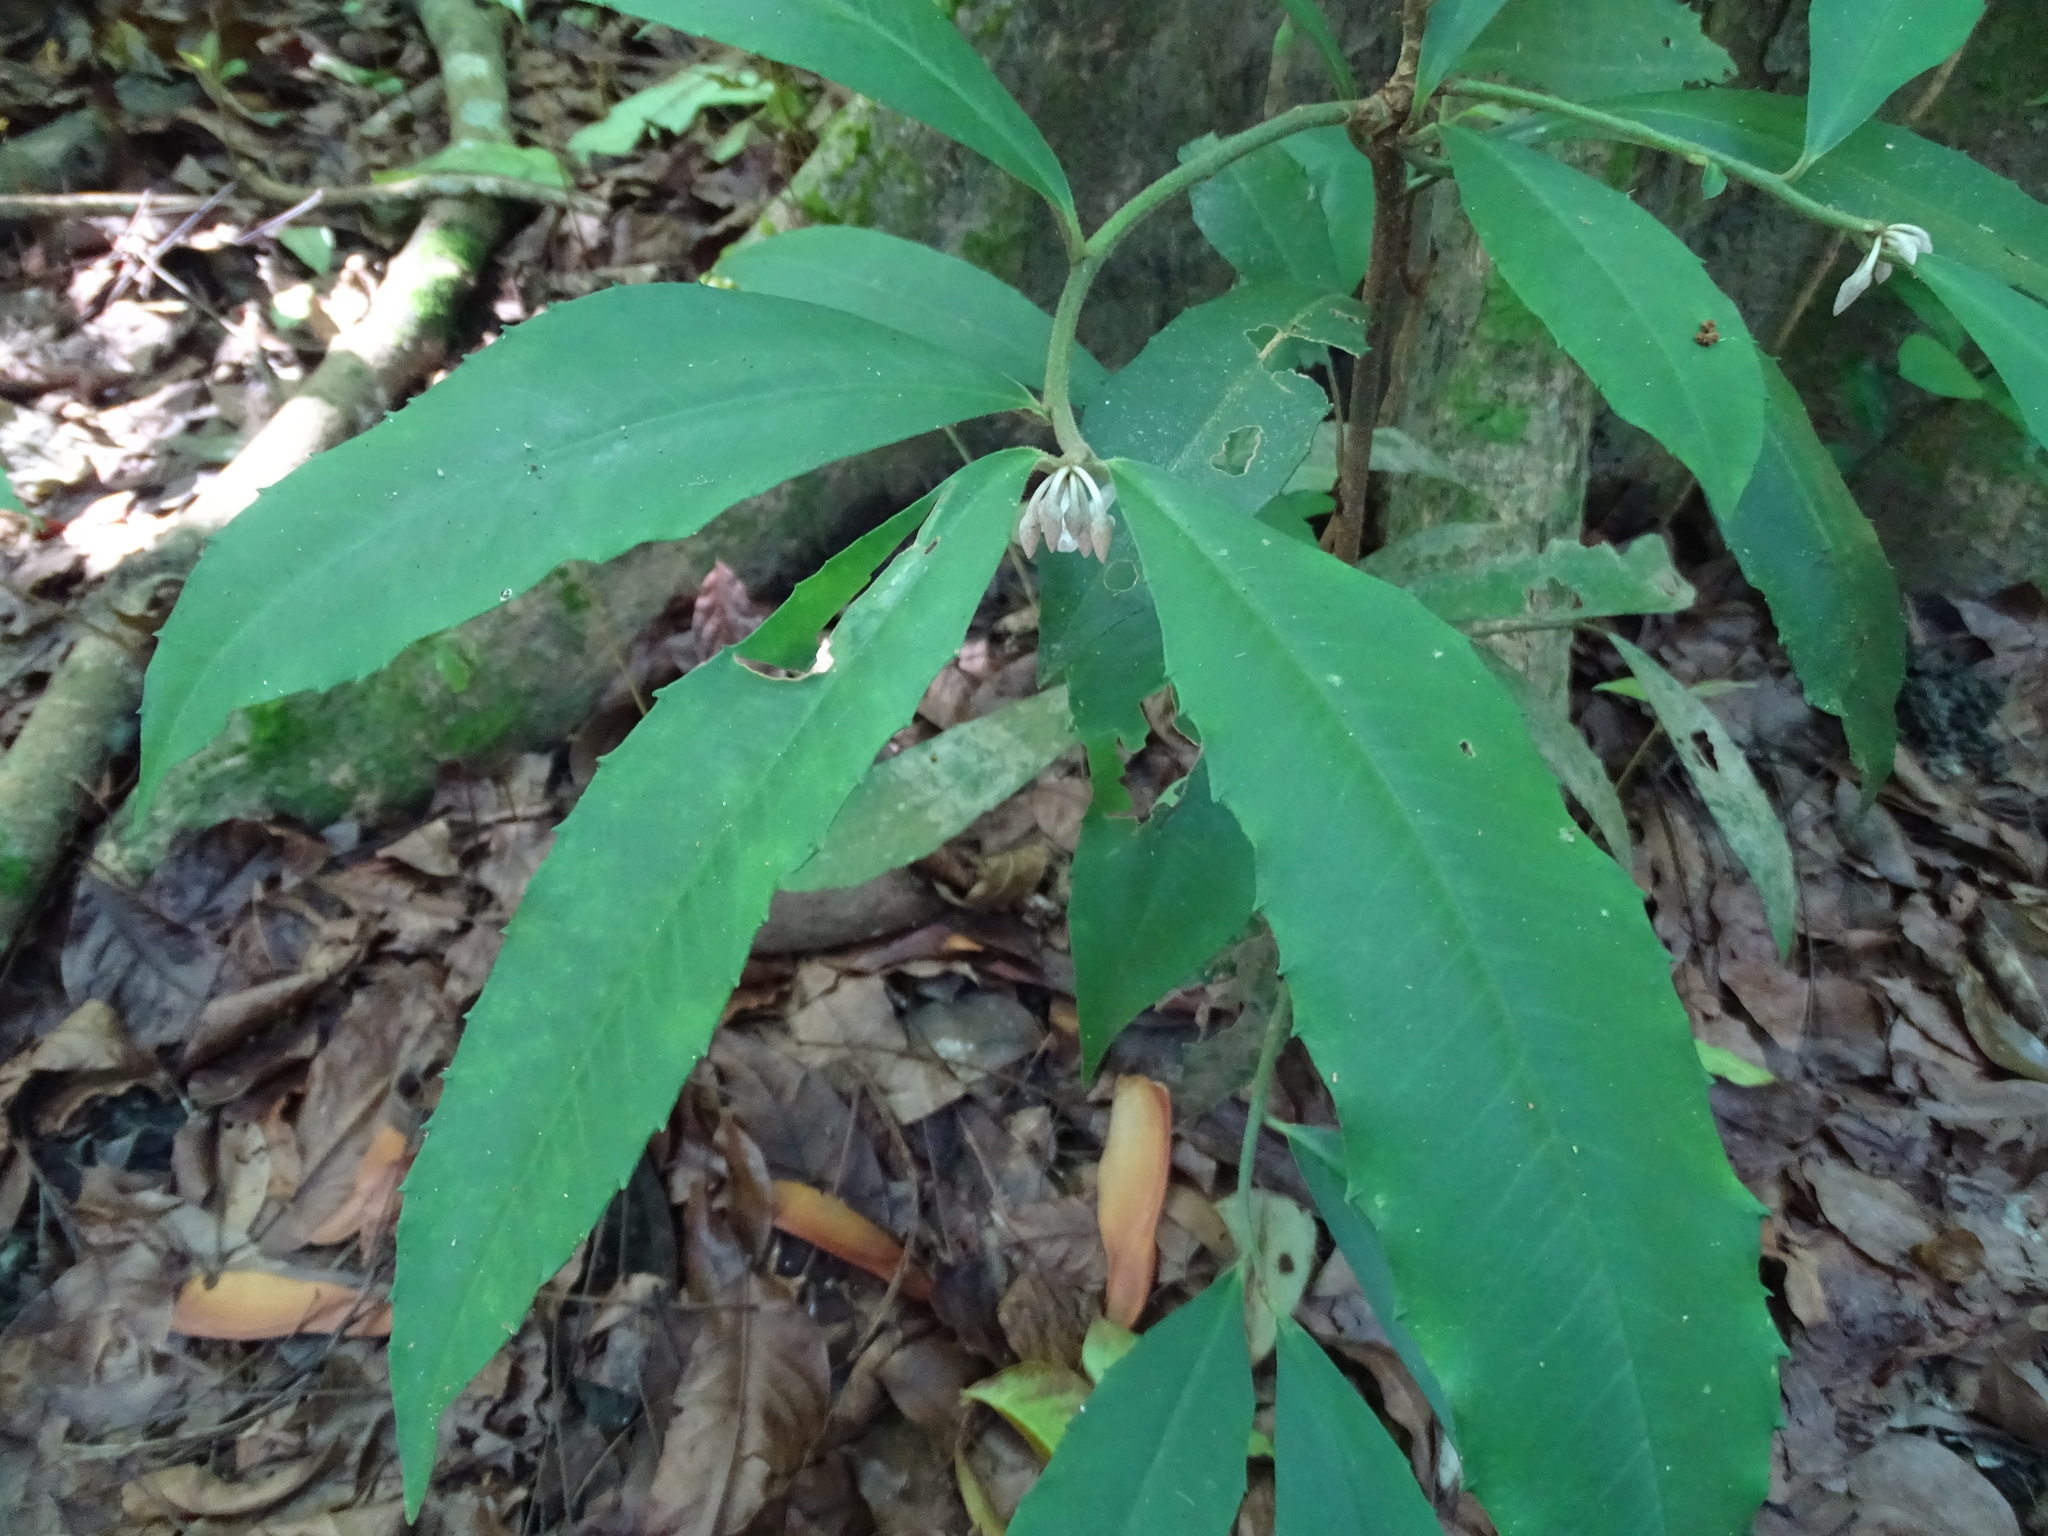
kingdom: Plantae
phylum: Tracheophyta
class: Magnoliopsida
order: Ericales
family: Primulaceae
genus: Ardisia
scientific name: Ardisia cornudentata
